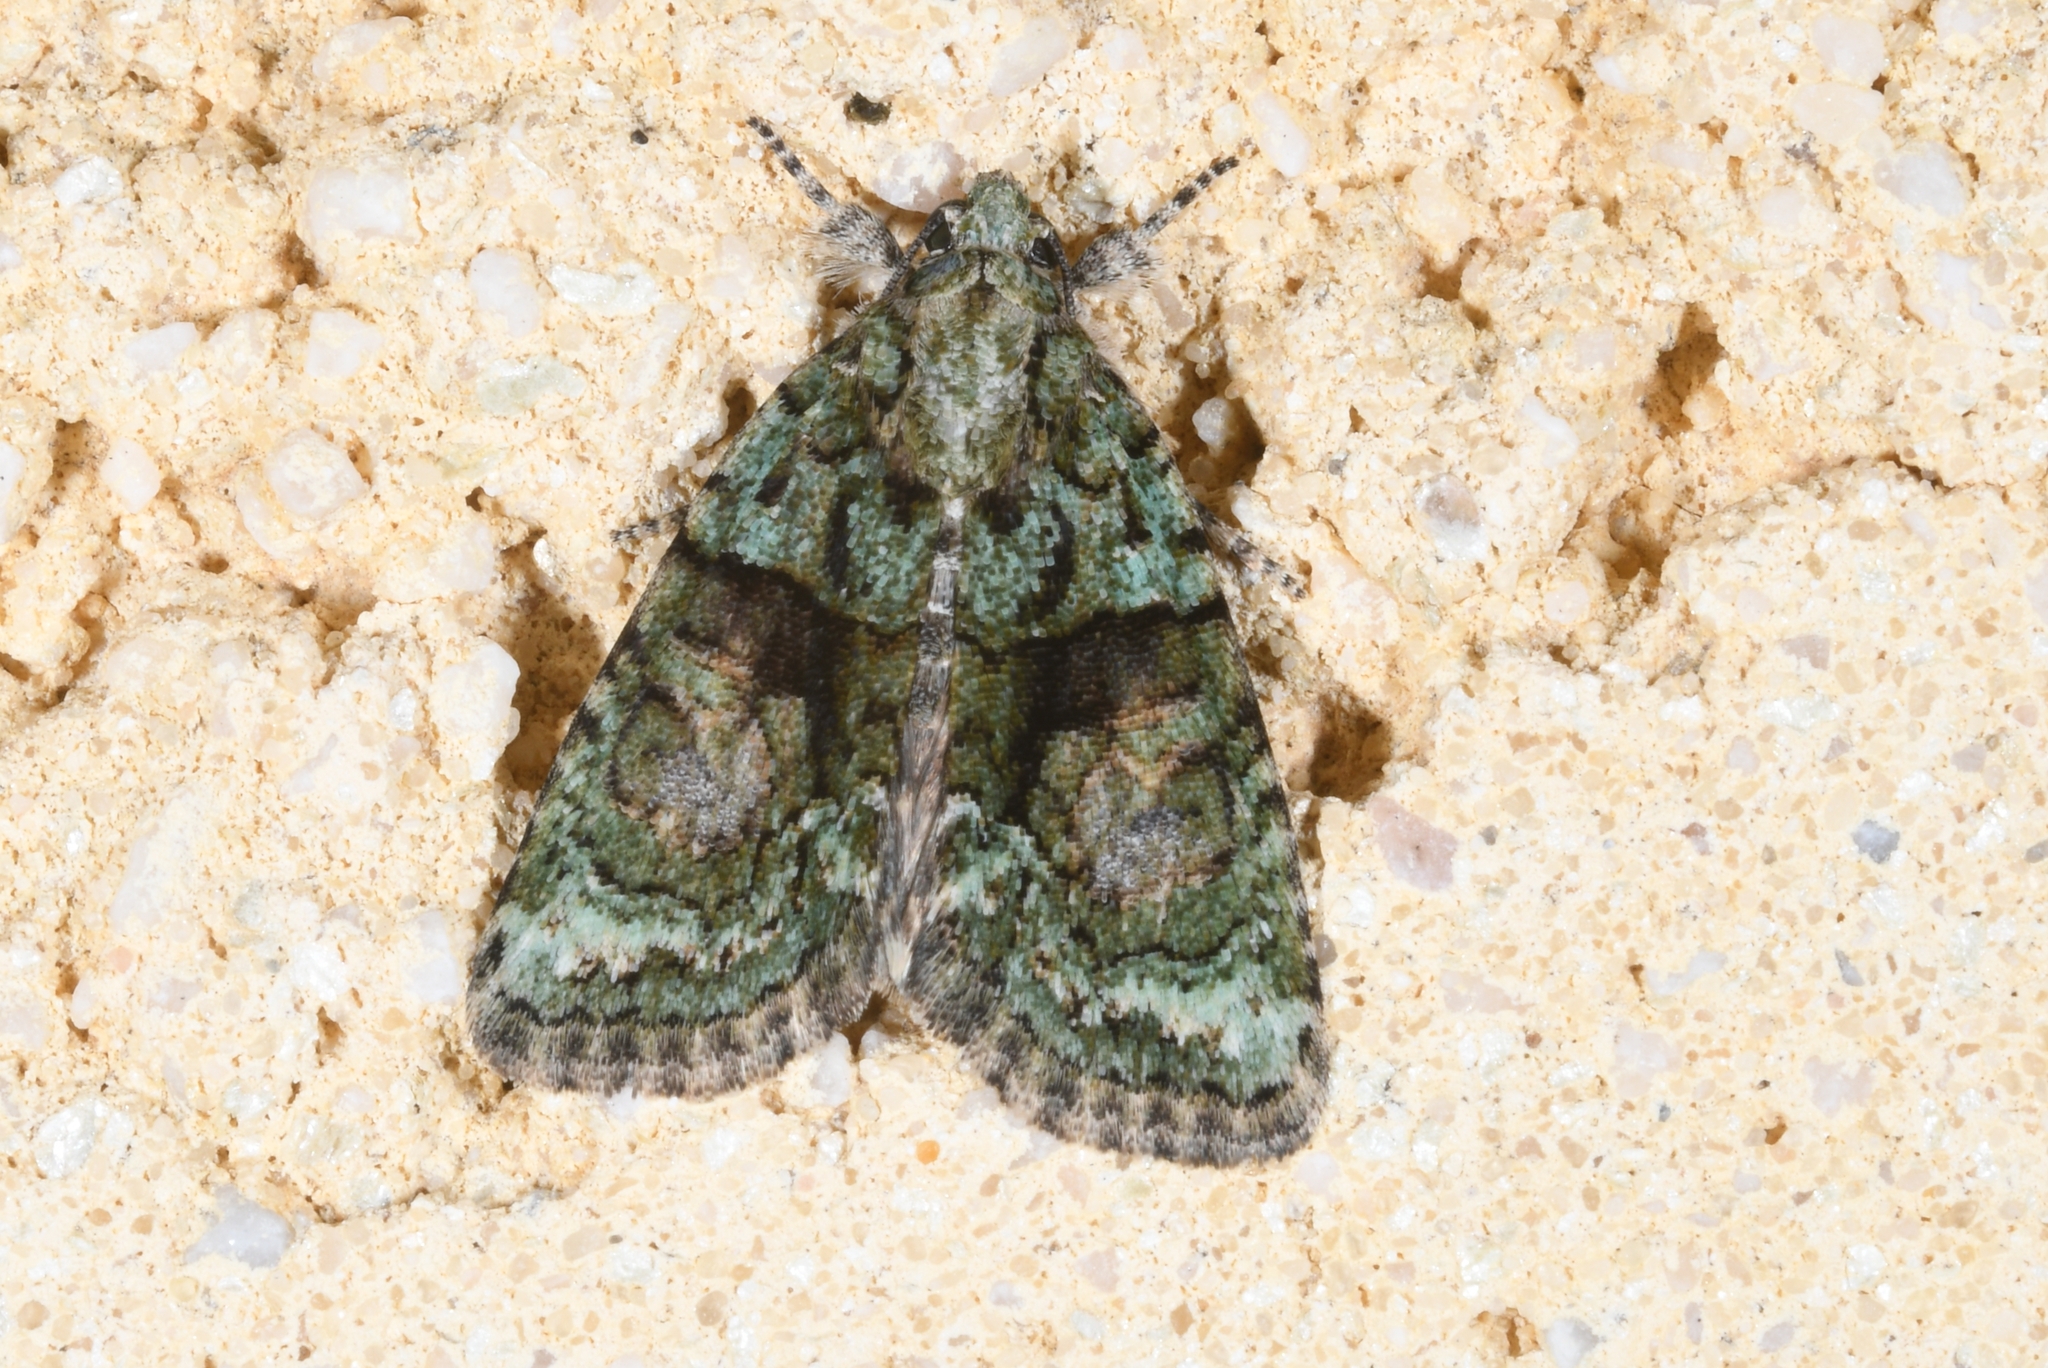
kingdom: Animalia
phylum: Arthropoda
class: Insecta
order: Lepidoptera
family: Noctuidae
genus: Cryphia
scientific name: Cryphia algae
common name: Tree-lichen beauty
